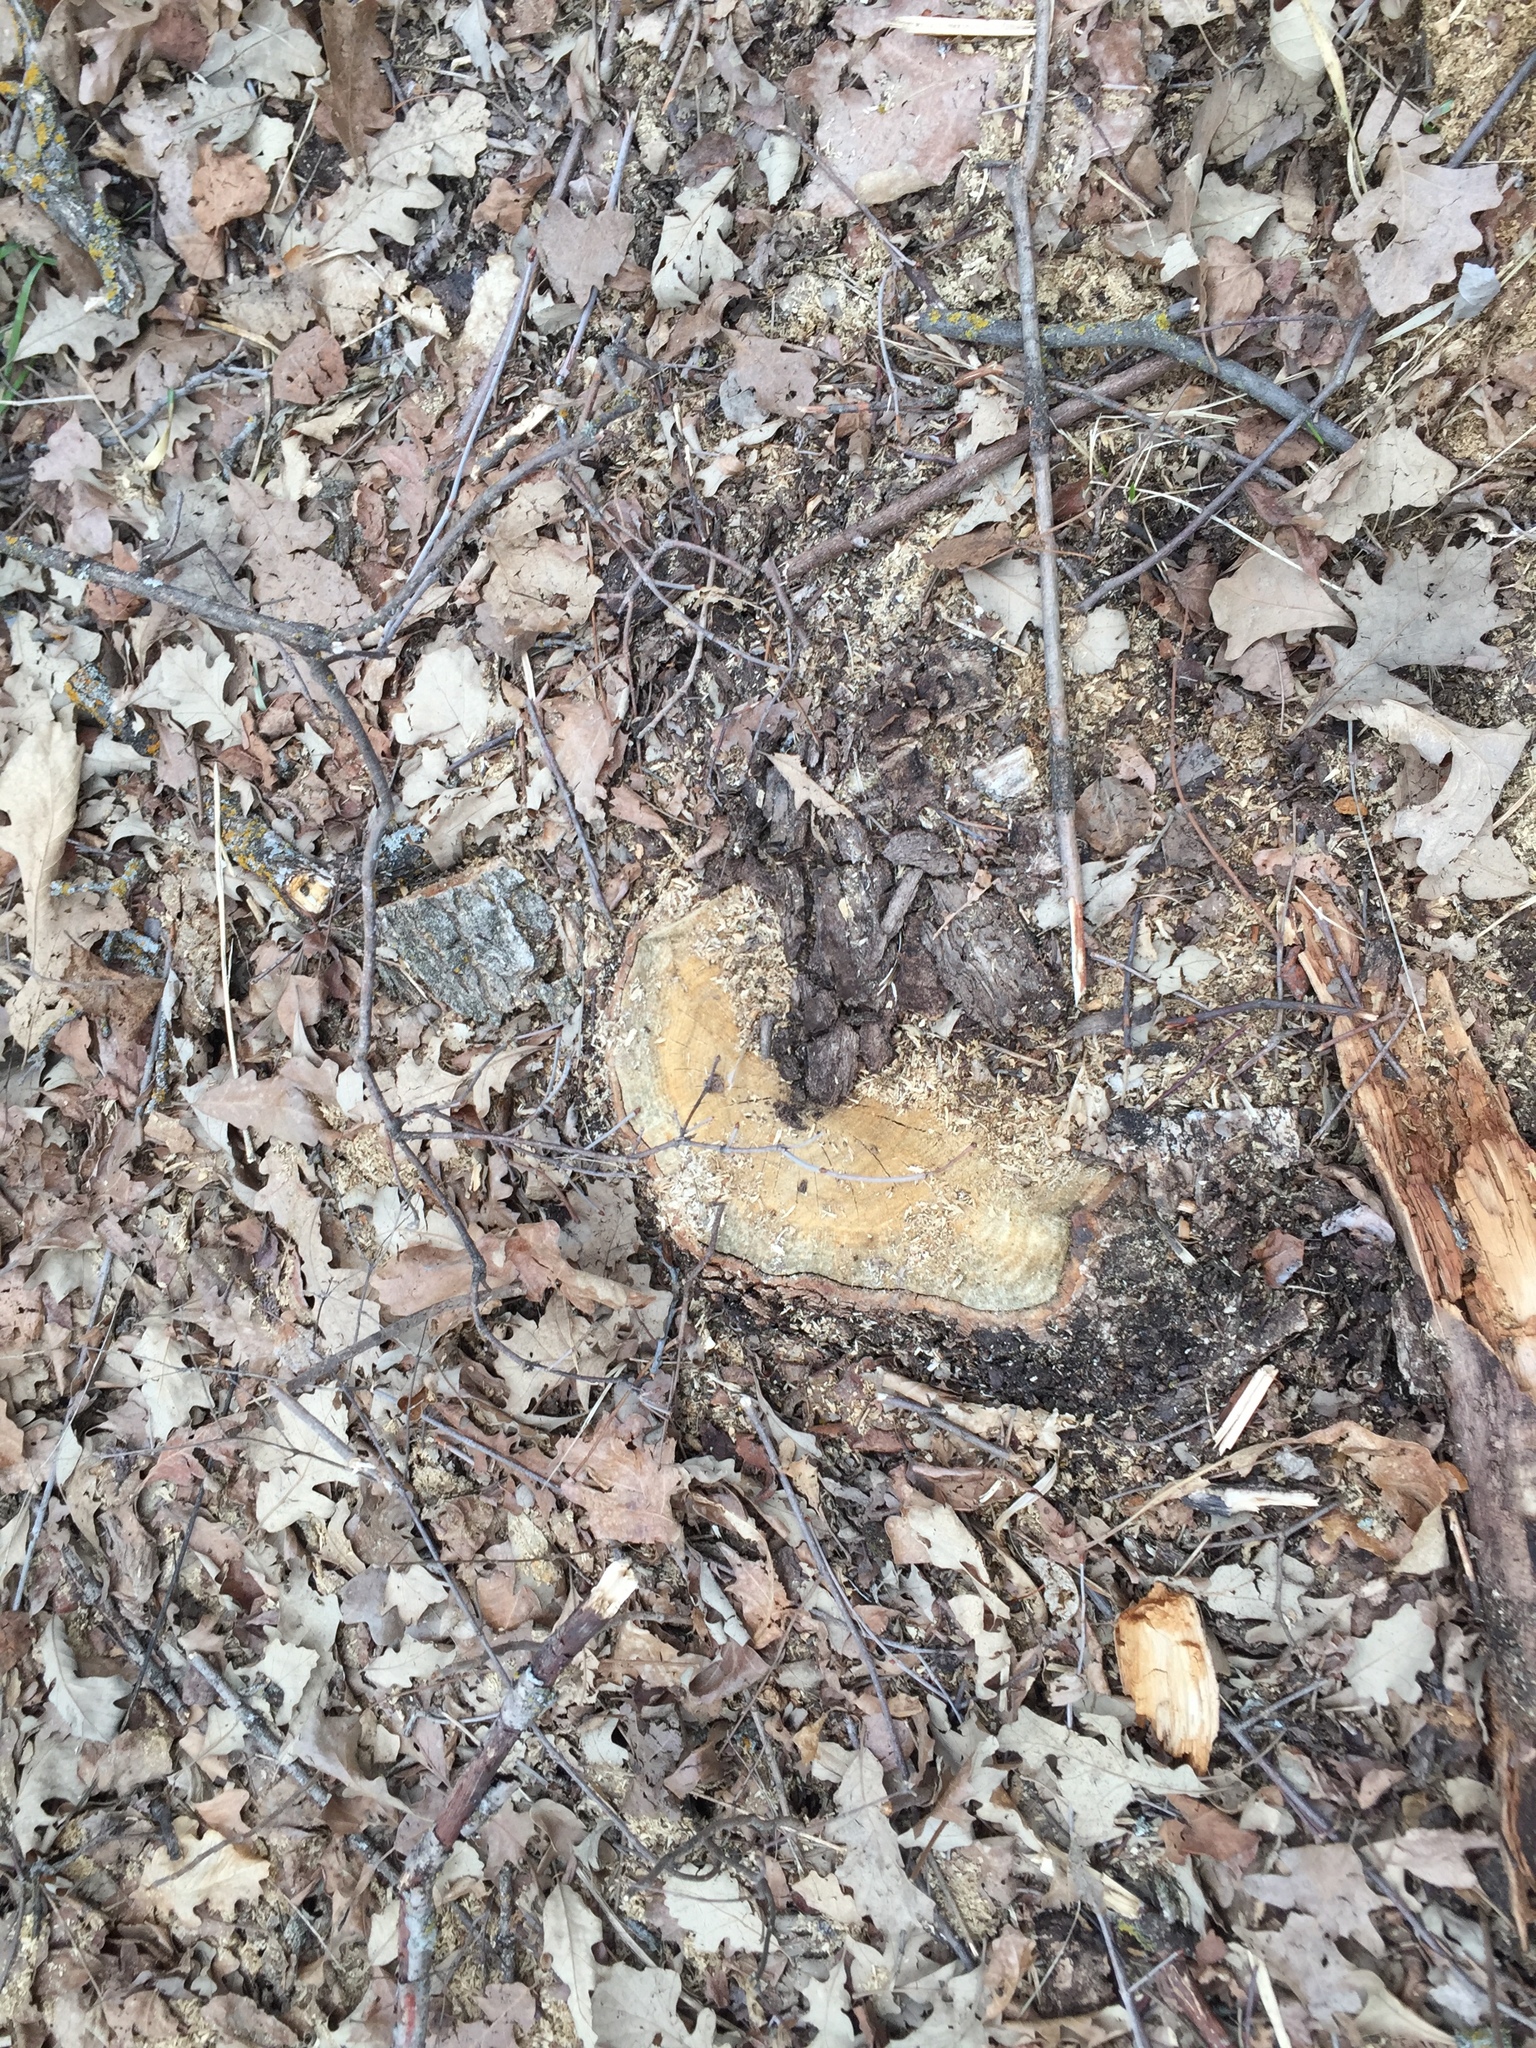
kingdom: Plantae
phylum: Tracheophyta
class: Magnoliopsida
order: Fagales
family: Fagaceae
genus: Quercus
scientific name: Quercus macrocarpa
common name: Bur oak
